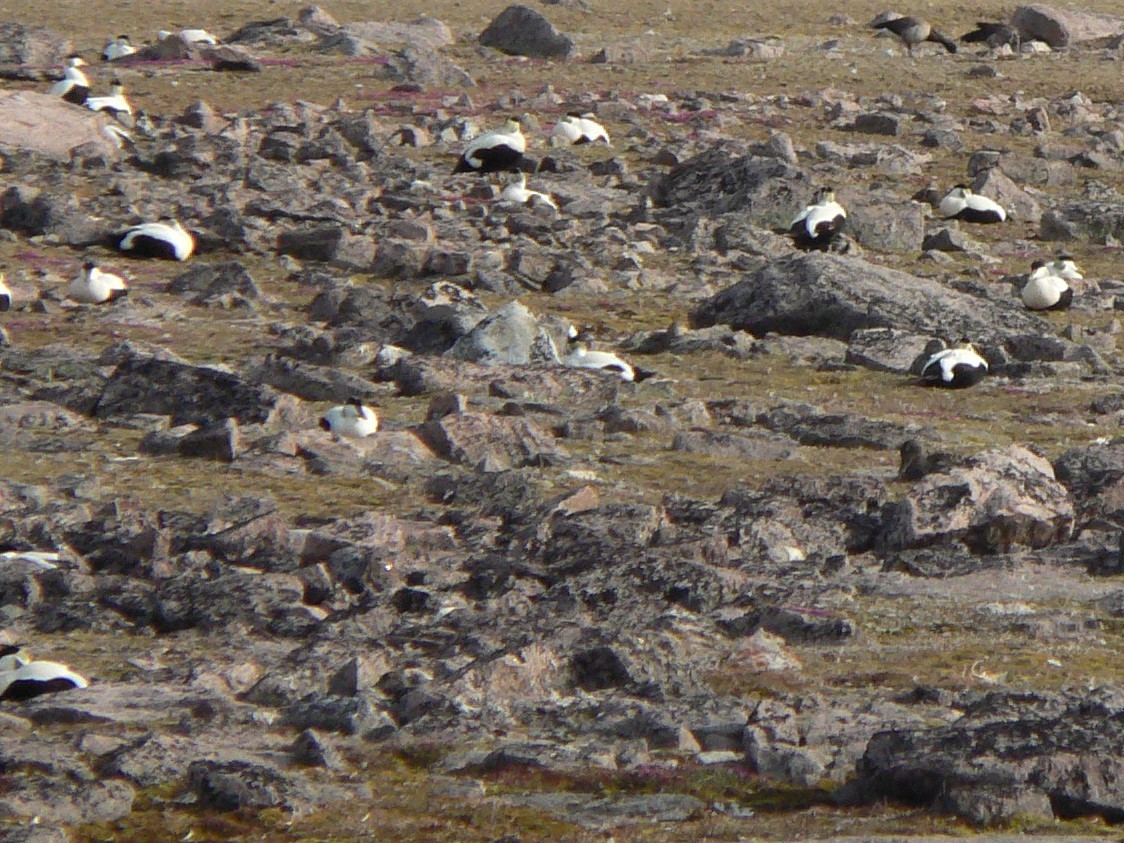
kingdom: Animalia
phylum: Chordata
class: Aves
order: Anseriformes
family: Anatidae
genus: Somateria
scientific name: Somateria mollissima
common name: Common eider
